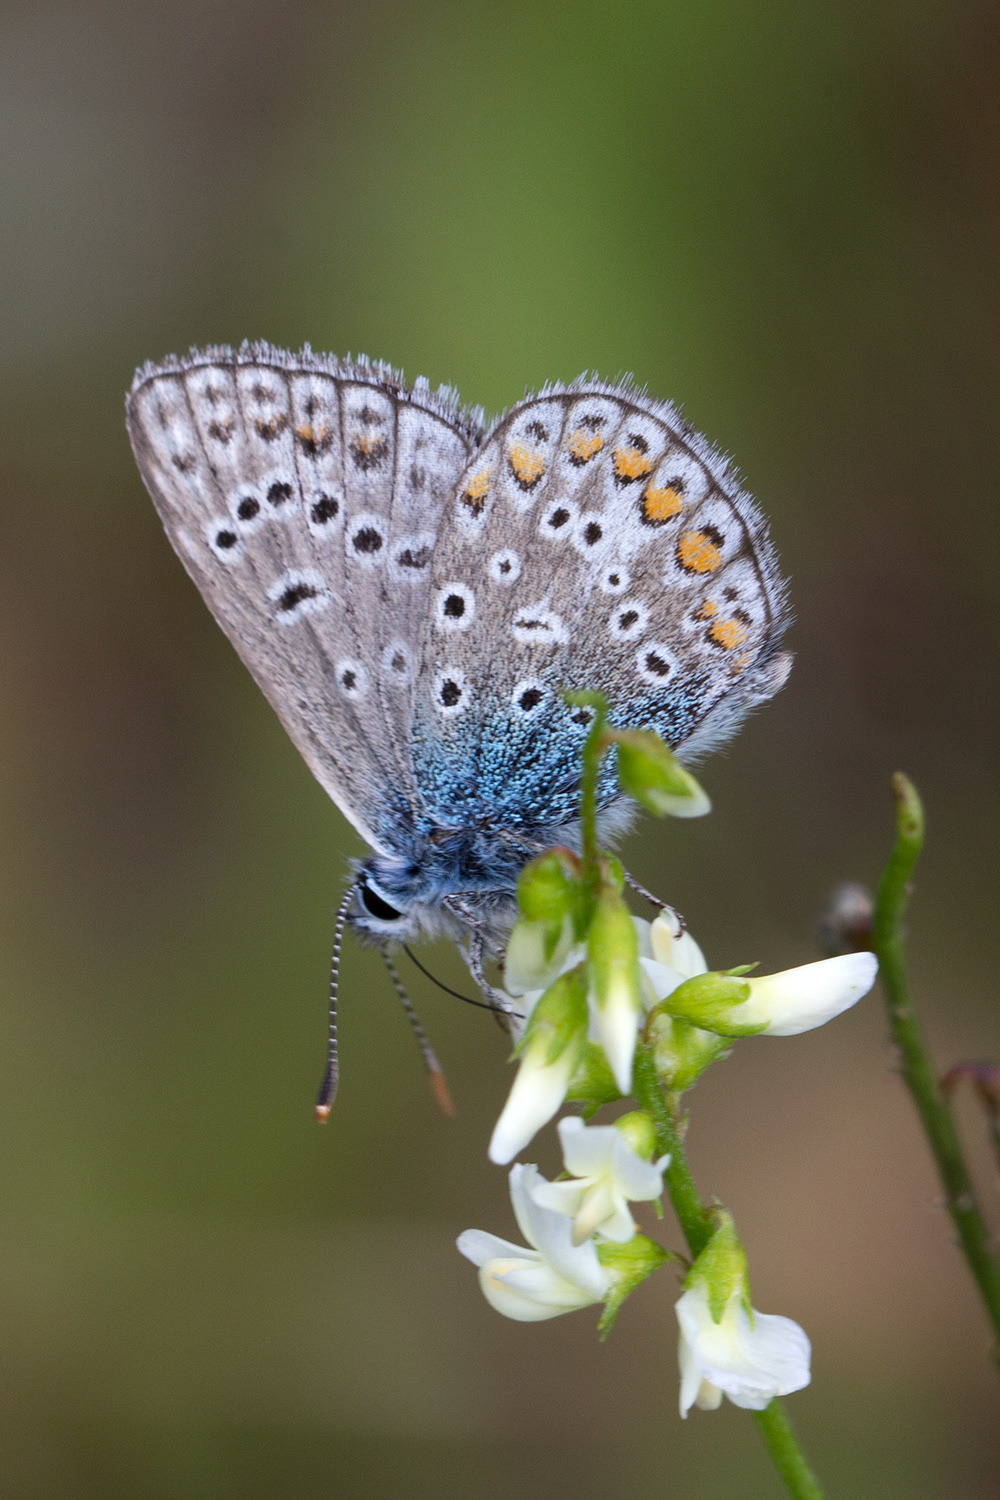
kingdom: Animalia
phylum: Arthropoda
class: Insecta
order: Lepidoptera
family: Lycaenidae
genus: Polyommatus
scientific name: Polyommatus icarus
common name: Common blue
